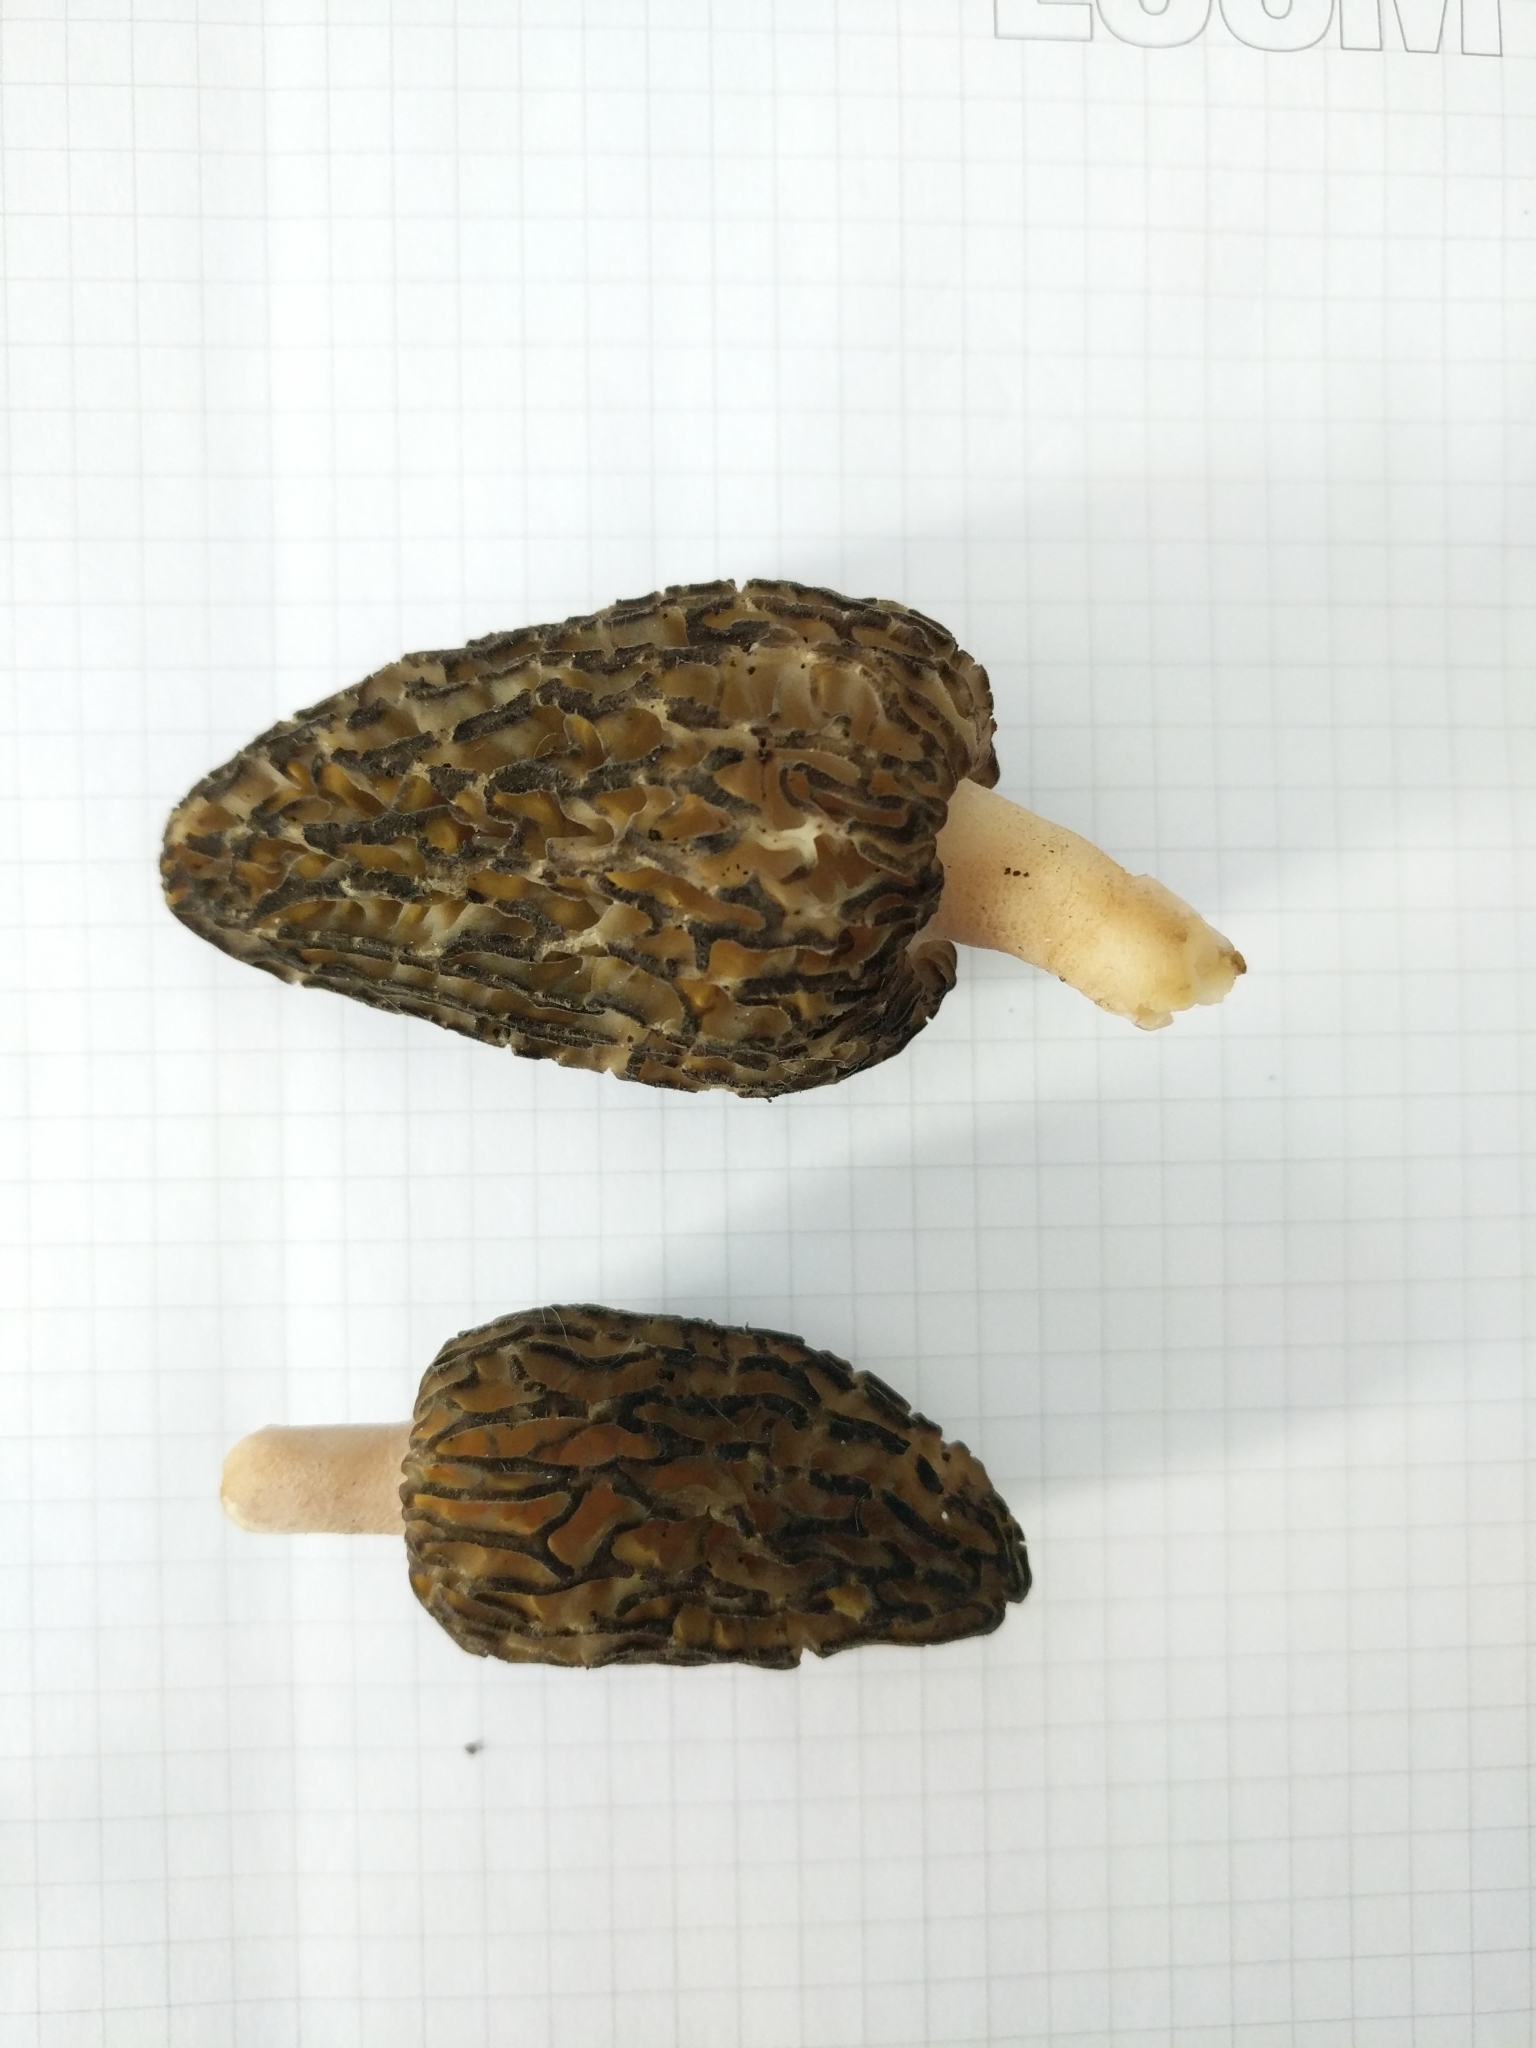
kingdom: Fungi
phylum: Ascomycota
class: Pezizomycetes
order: Pezizales
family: Morchellaceae
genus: Morchella
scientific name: Morchella
